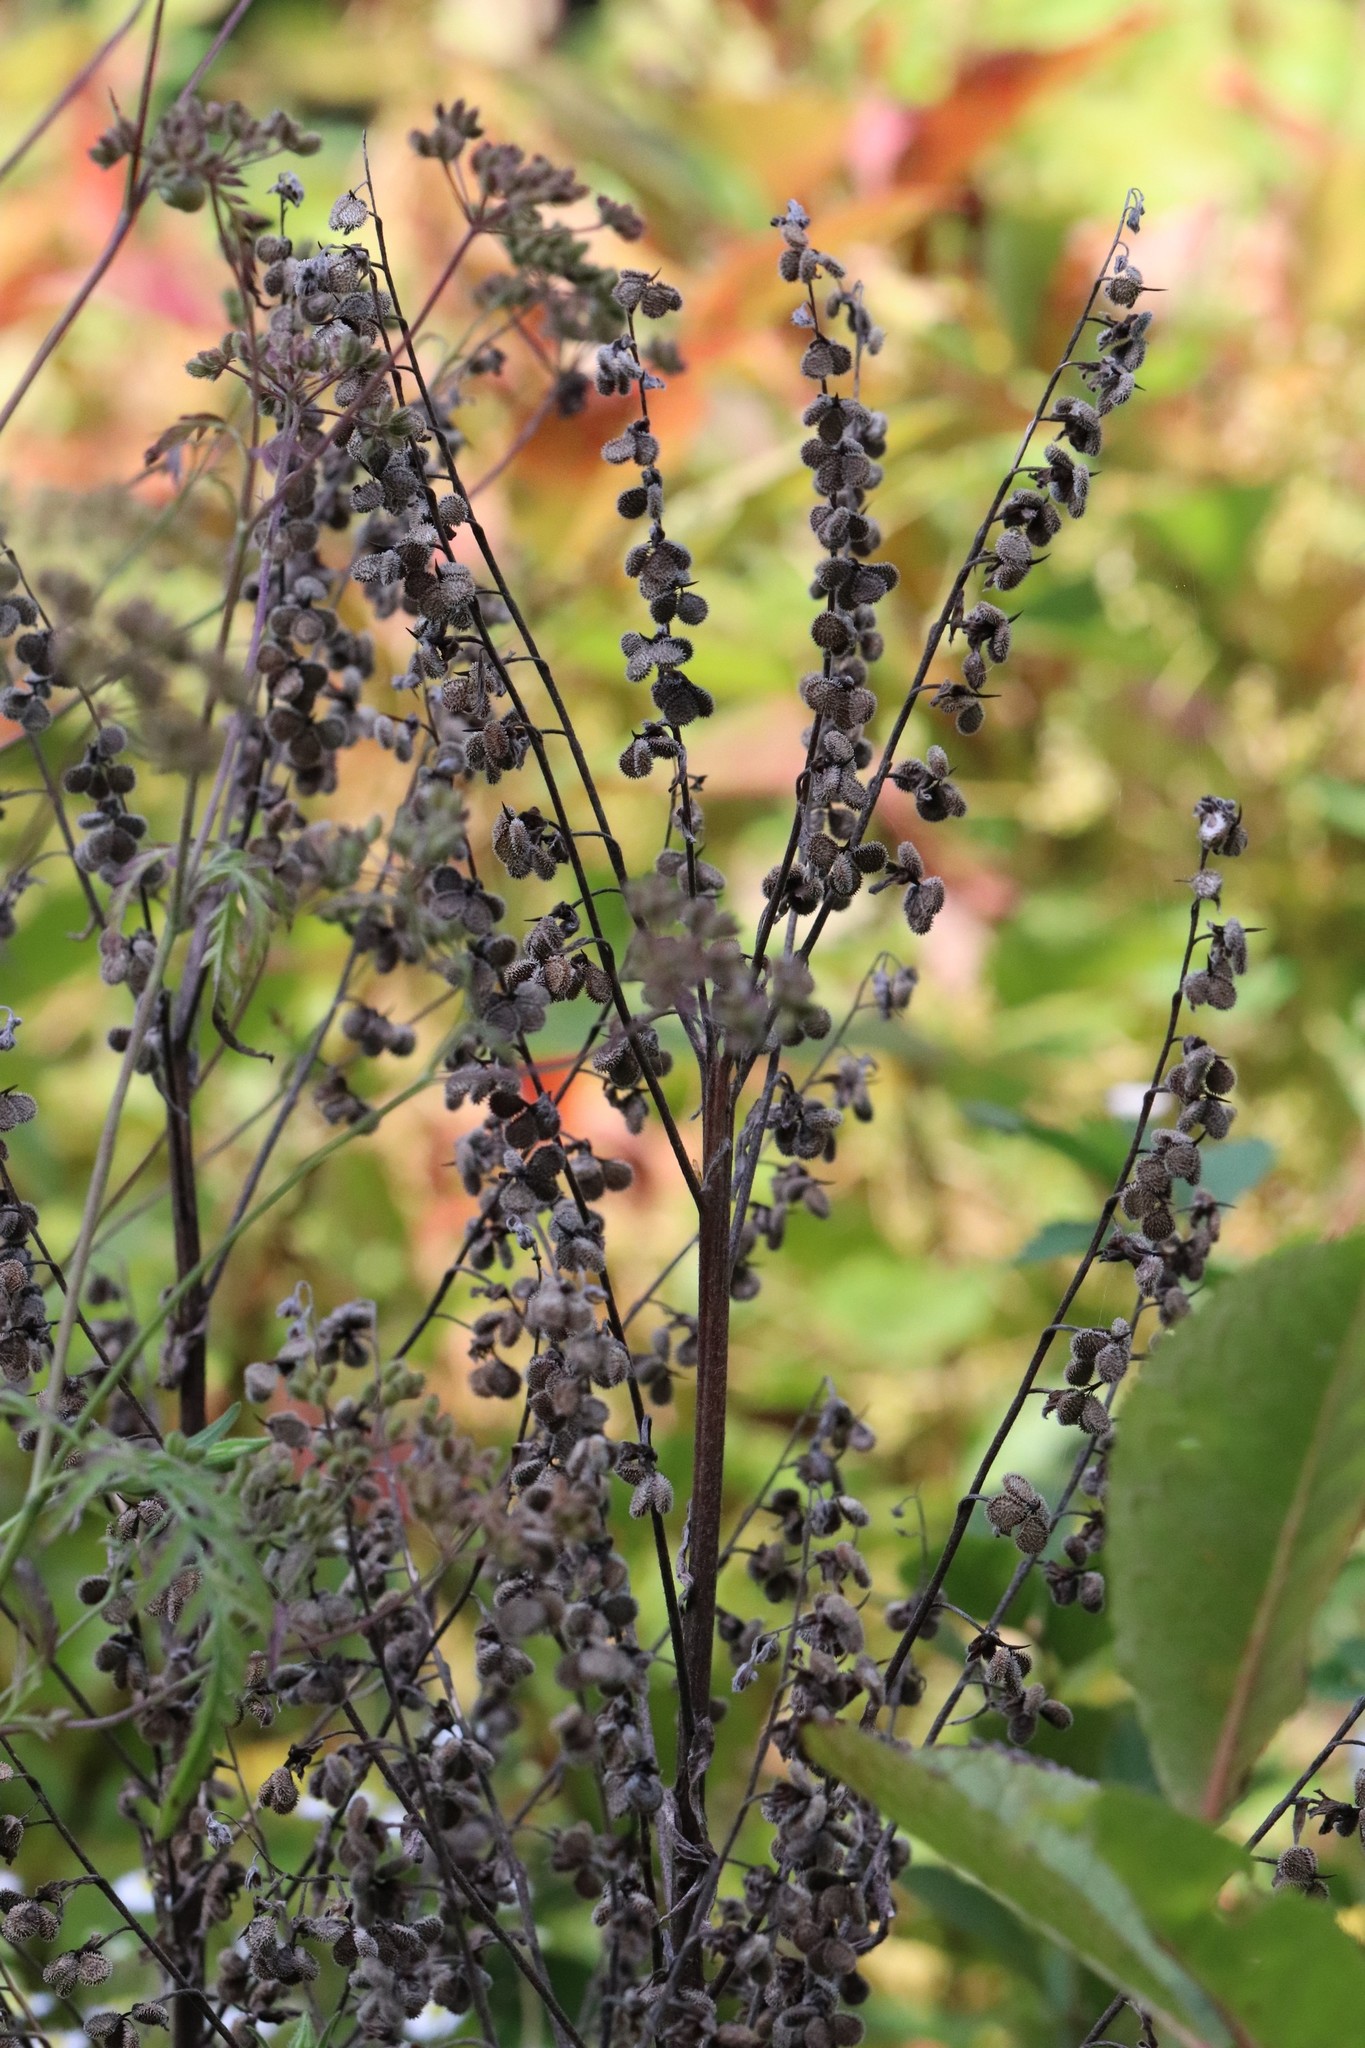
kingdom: Plantae
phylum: Tracheophyta
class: Magnoliopsida
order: Boraginales
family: Boraginaceae
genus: Cynoglossum
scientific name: Cynoglossum officinale
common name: Hound's-tongue
